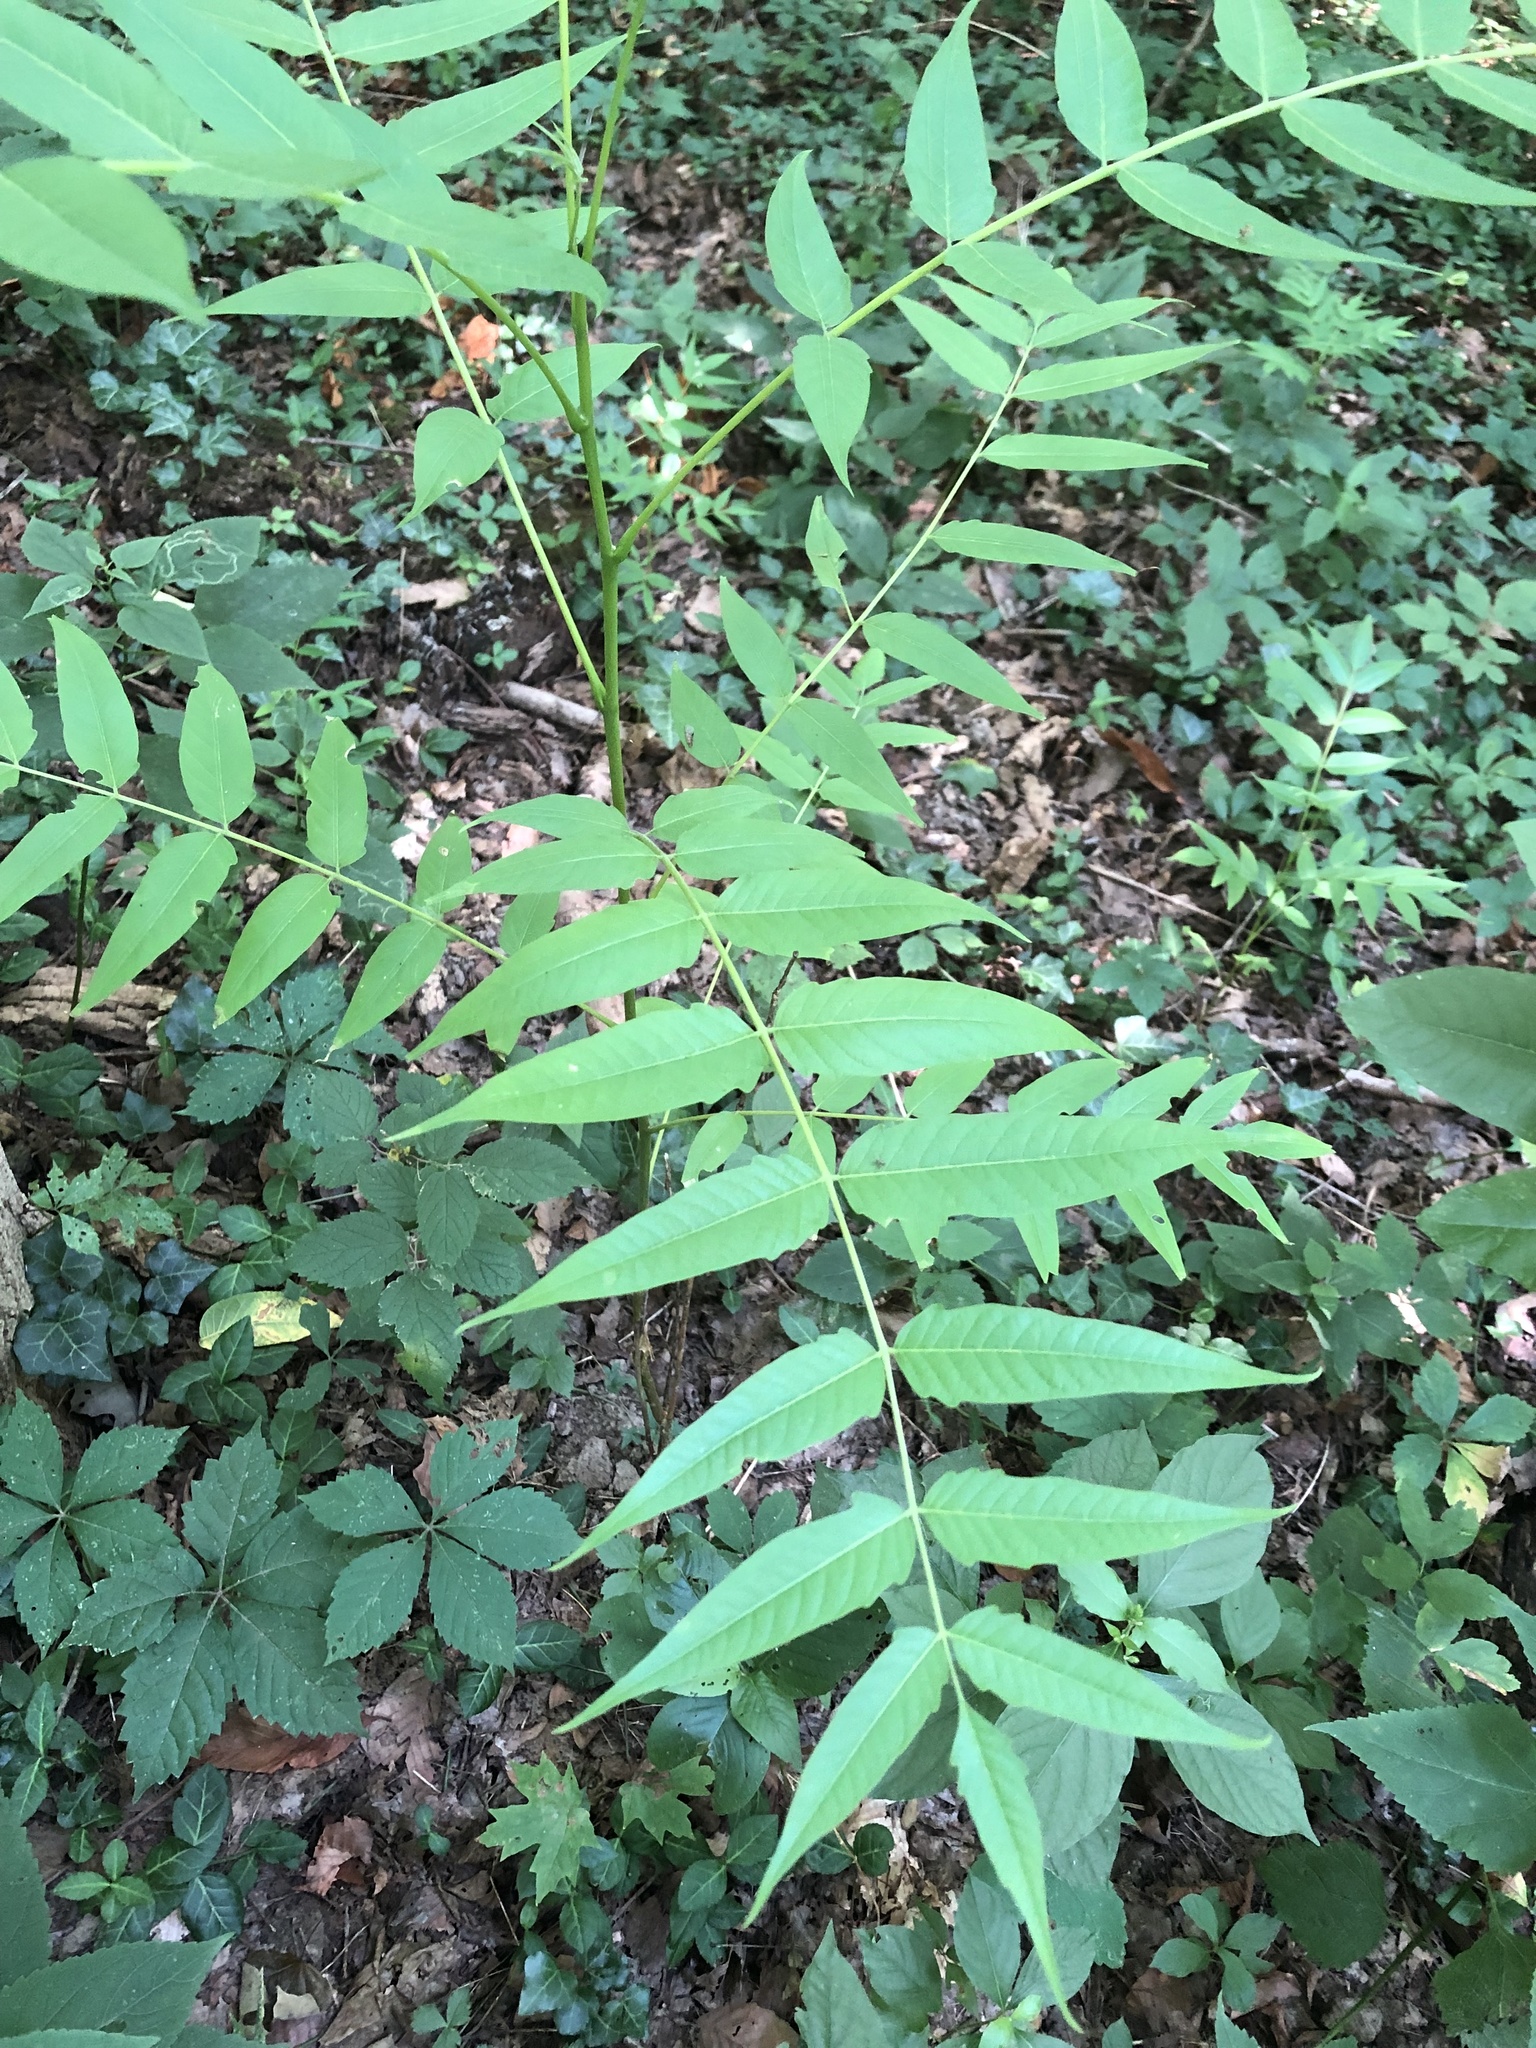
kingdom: Plantae
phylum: Tracheophyta
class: Magnoliopsida
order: Sapindales
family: Simaroubaceae
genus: Ailanthus
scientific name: Ailanthus altissima
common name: Tree-of-heaven
